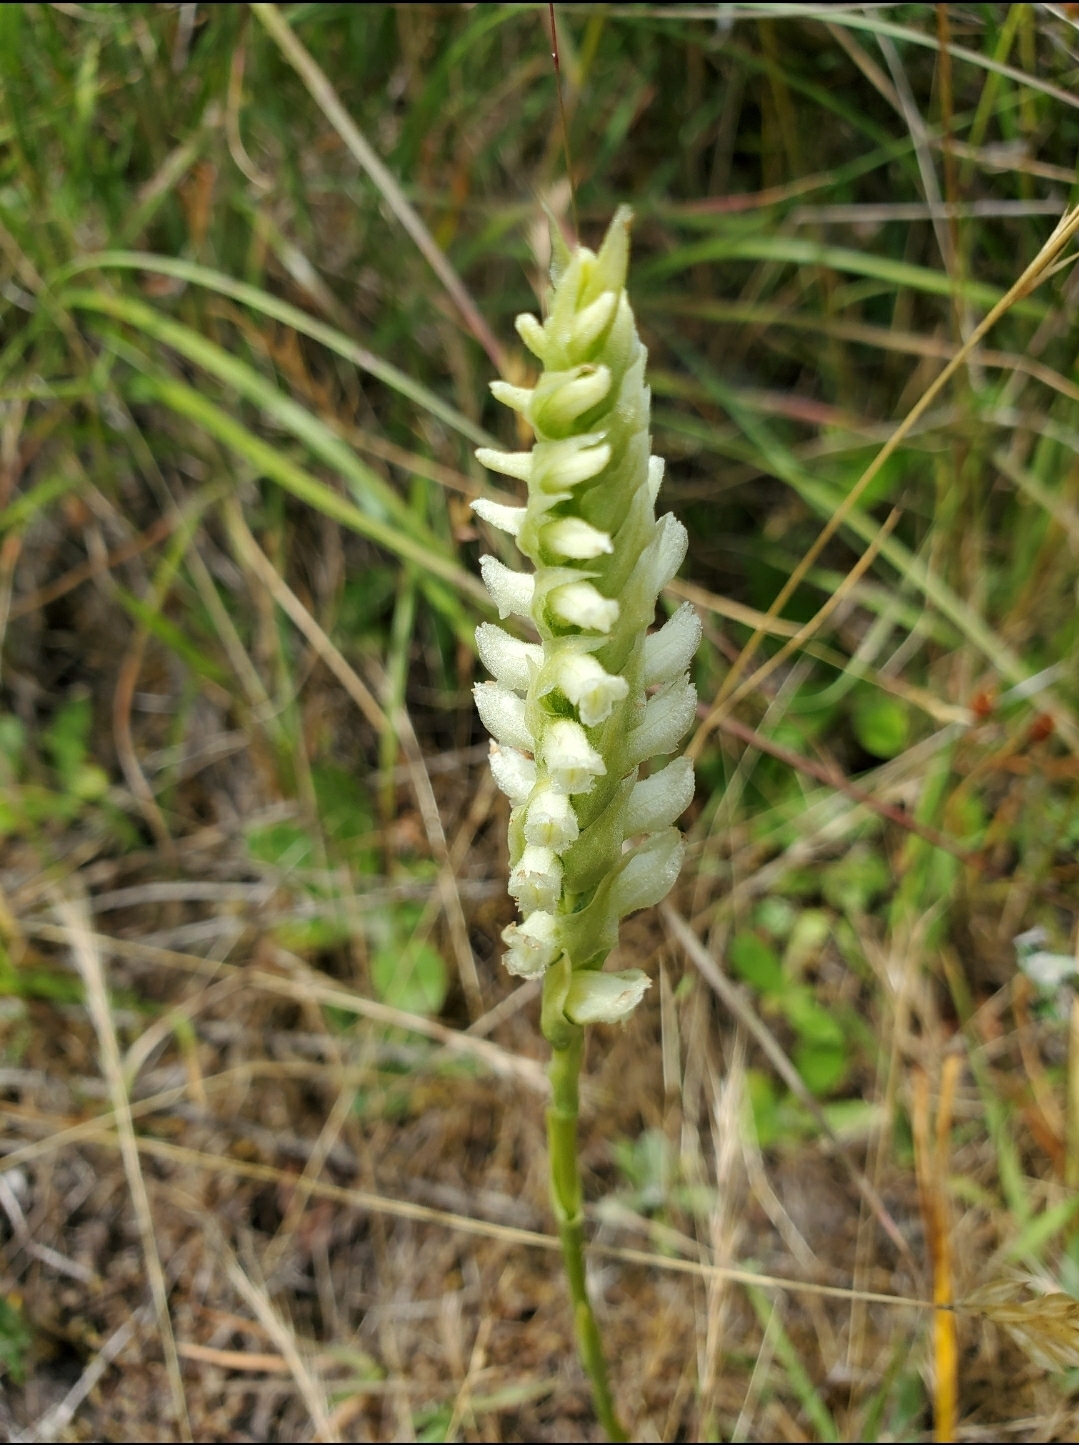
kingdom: Plantae
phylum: Tracheophyta
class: Liliopsida
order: Asparagales
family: Orchidaceae
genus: Spiranthes
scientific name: Spiranthes romanzoffiana
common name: Irish lady's-tresses
